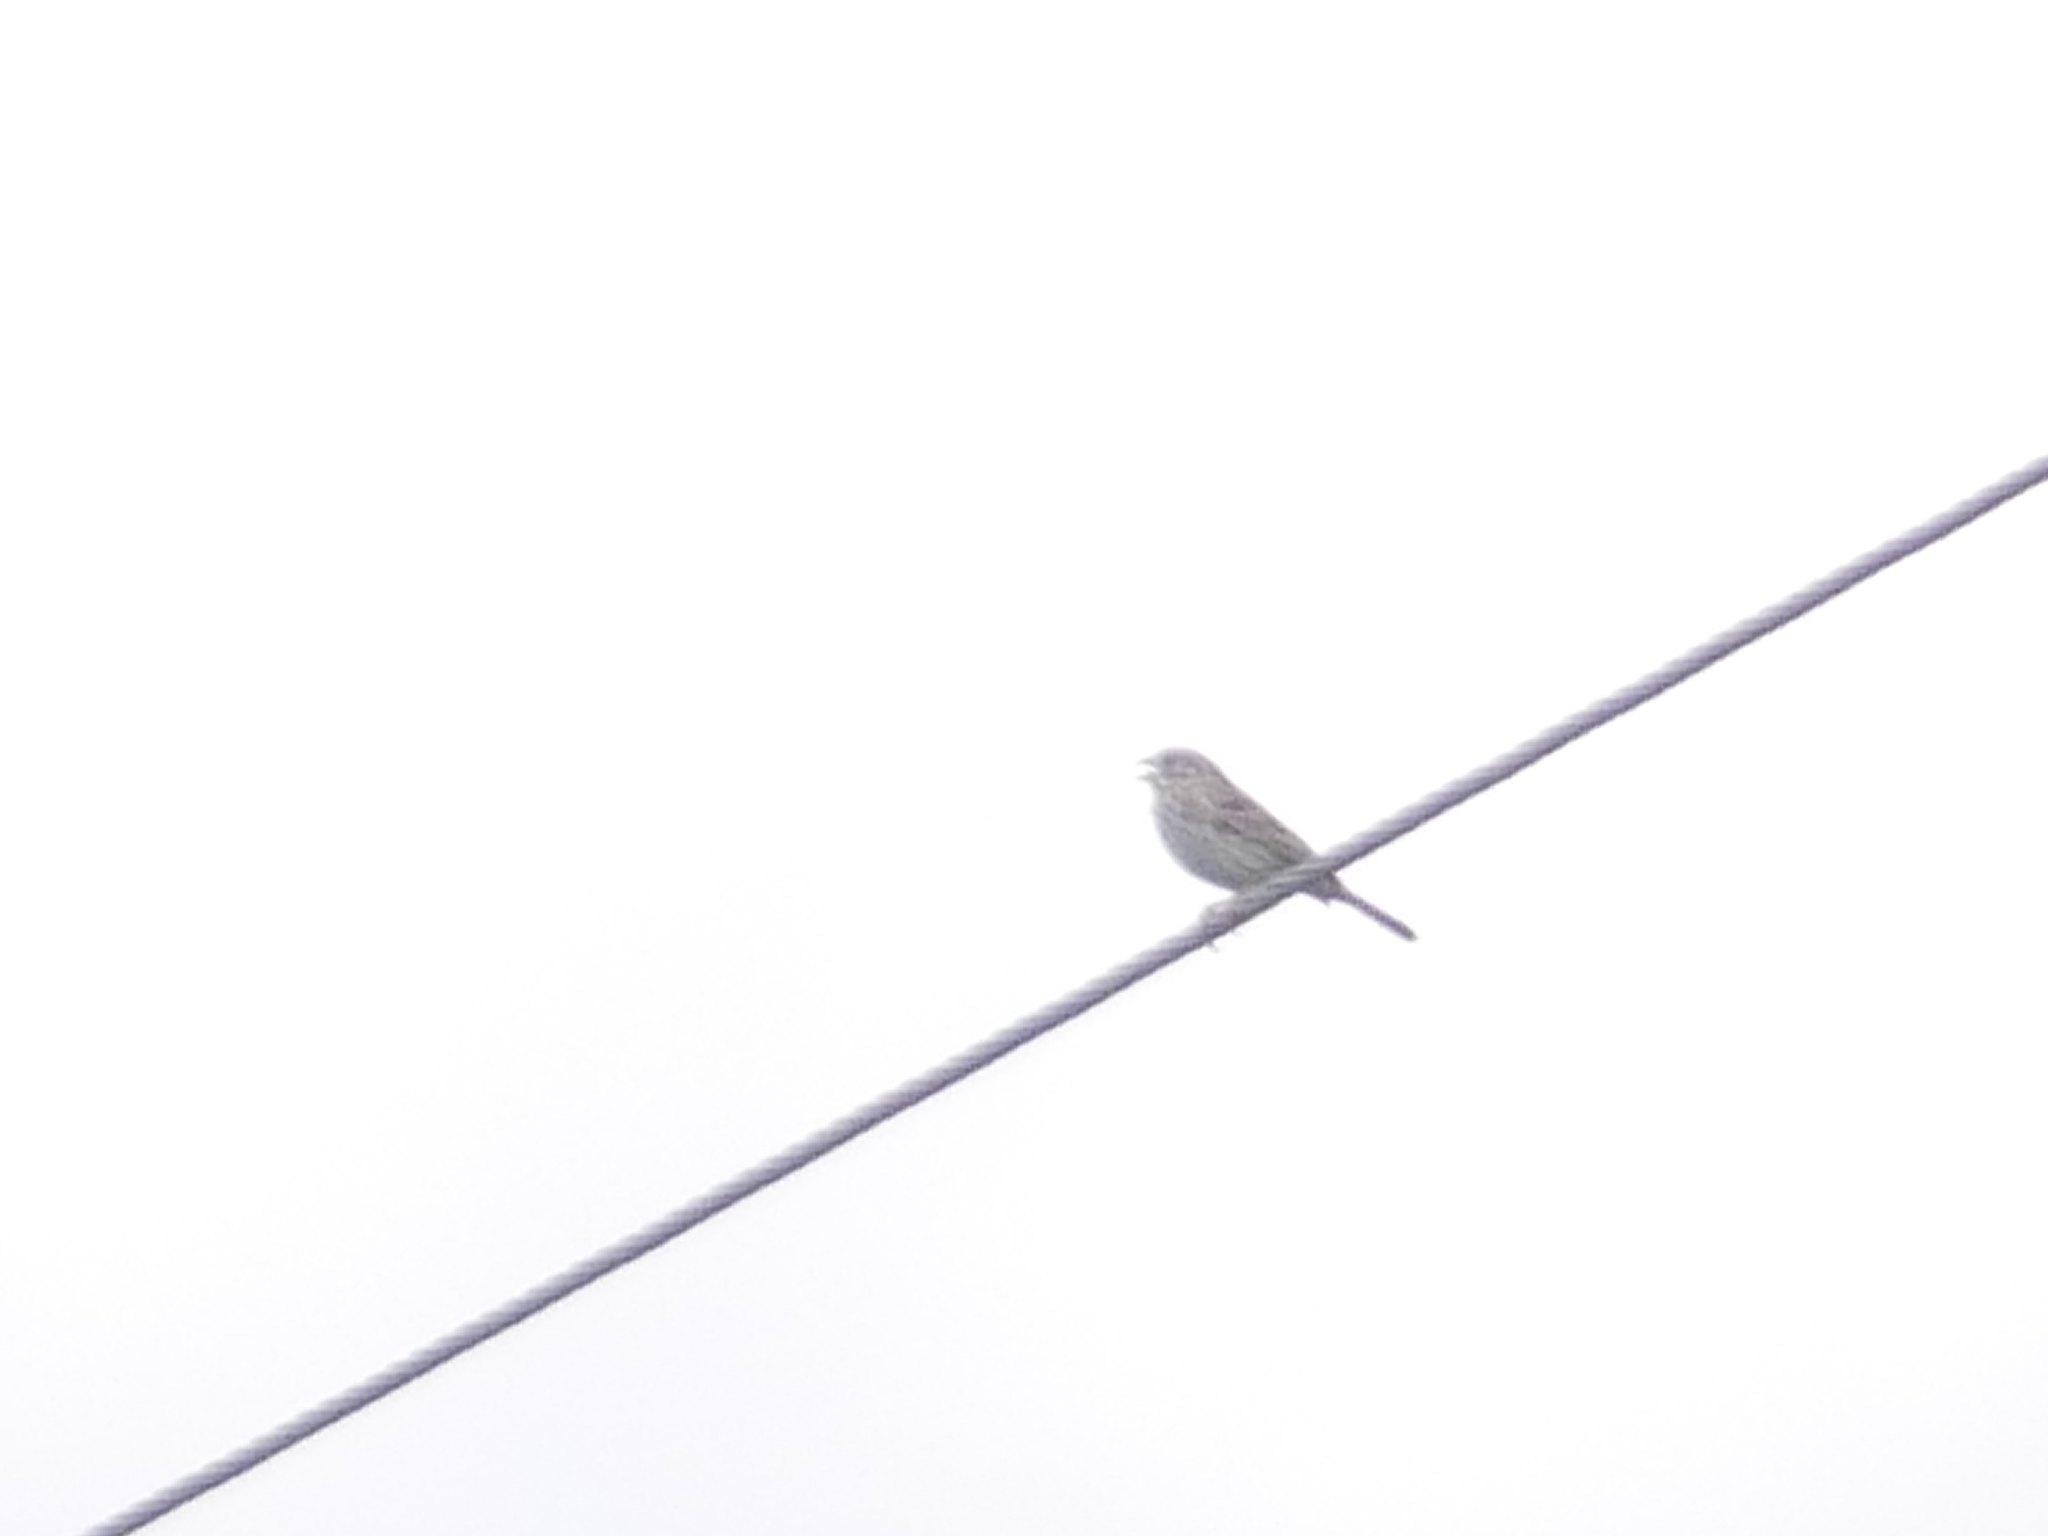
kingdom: Animalia
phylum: Chordata
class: Aves
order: Passeriformes
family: Emberizidae
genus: Emberiza
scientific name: Emberiza calandra
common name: Corn bunting
